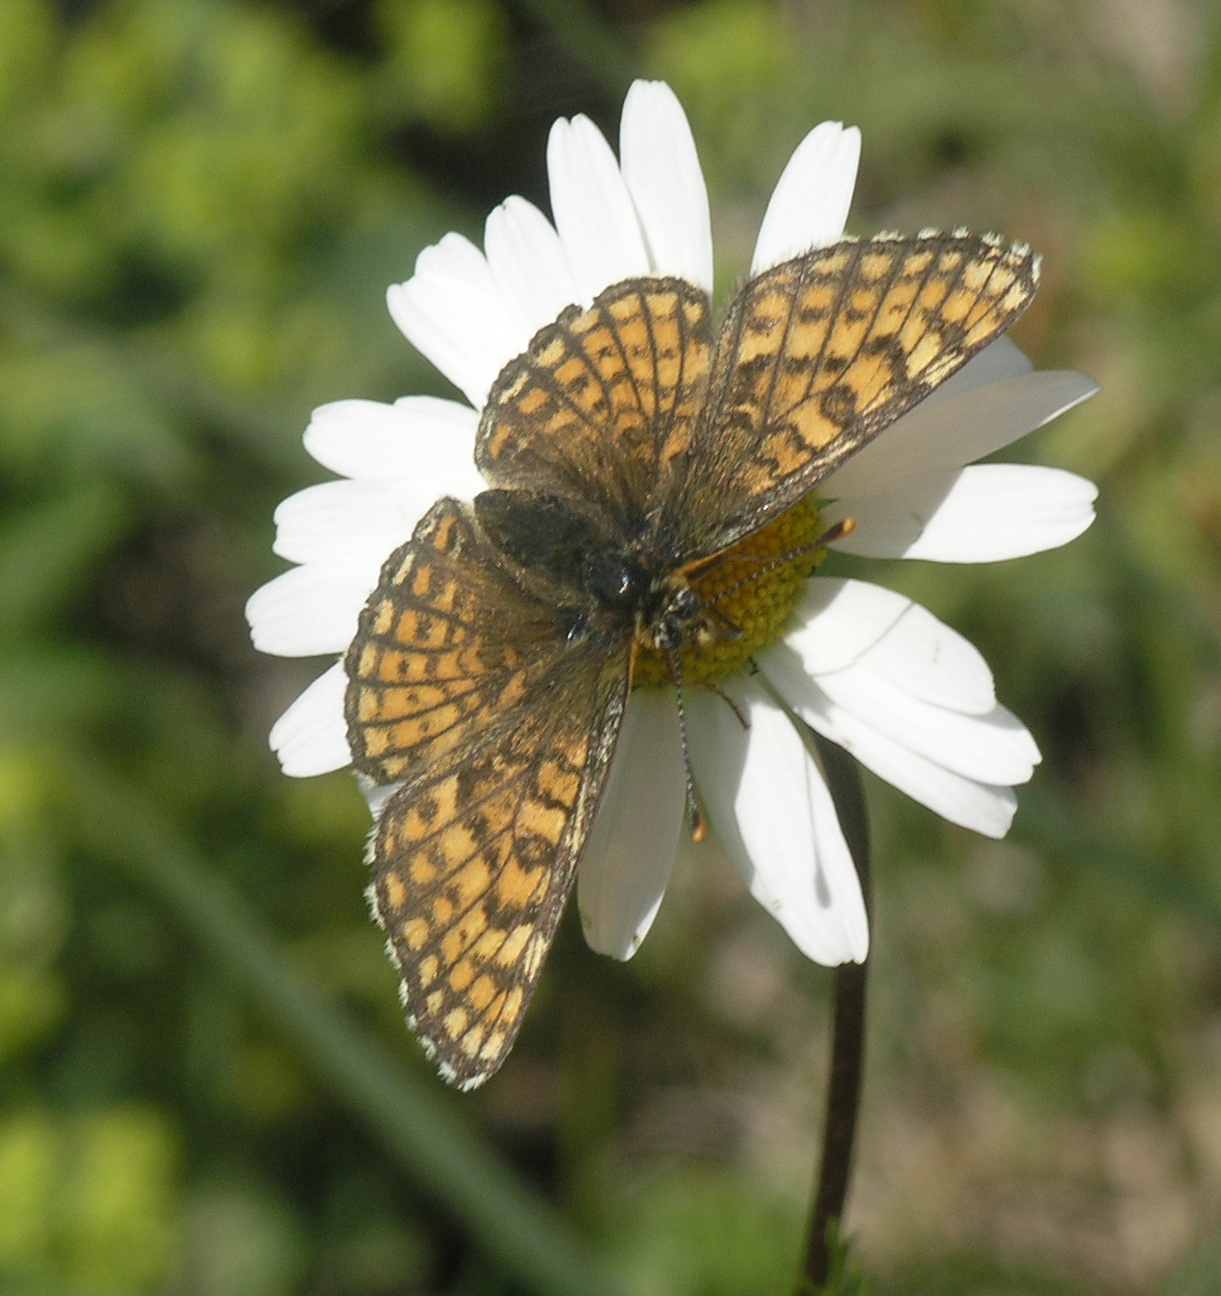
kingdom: Animalia
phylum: Arthropoda
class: Insecta
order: Lepidoptera
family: Nymphalidae
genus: Melitaea
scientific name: Melitaea arcesia
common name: Blackvein fritillary
